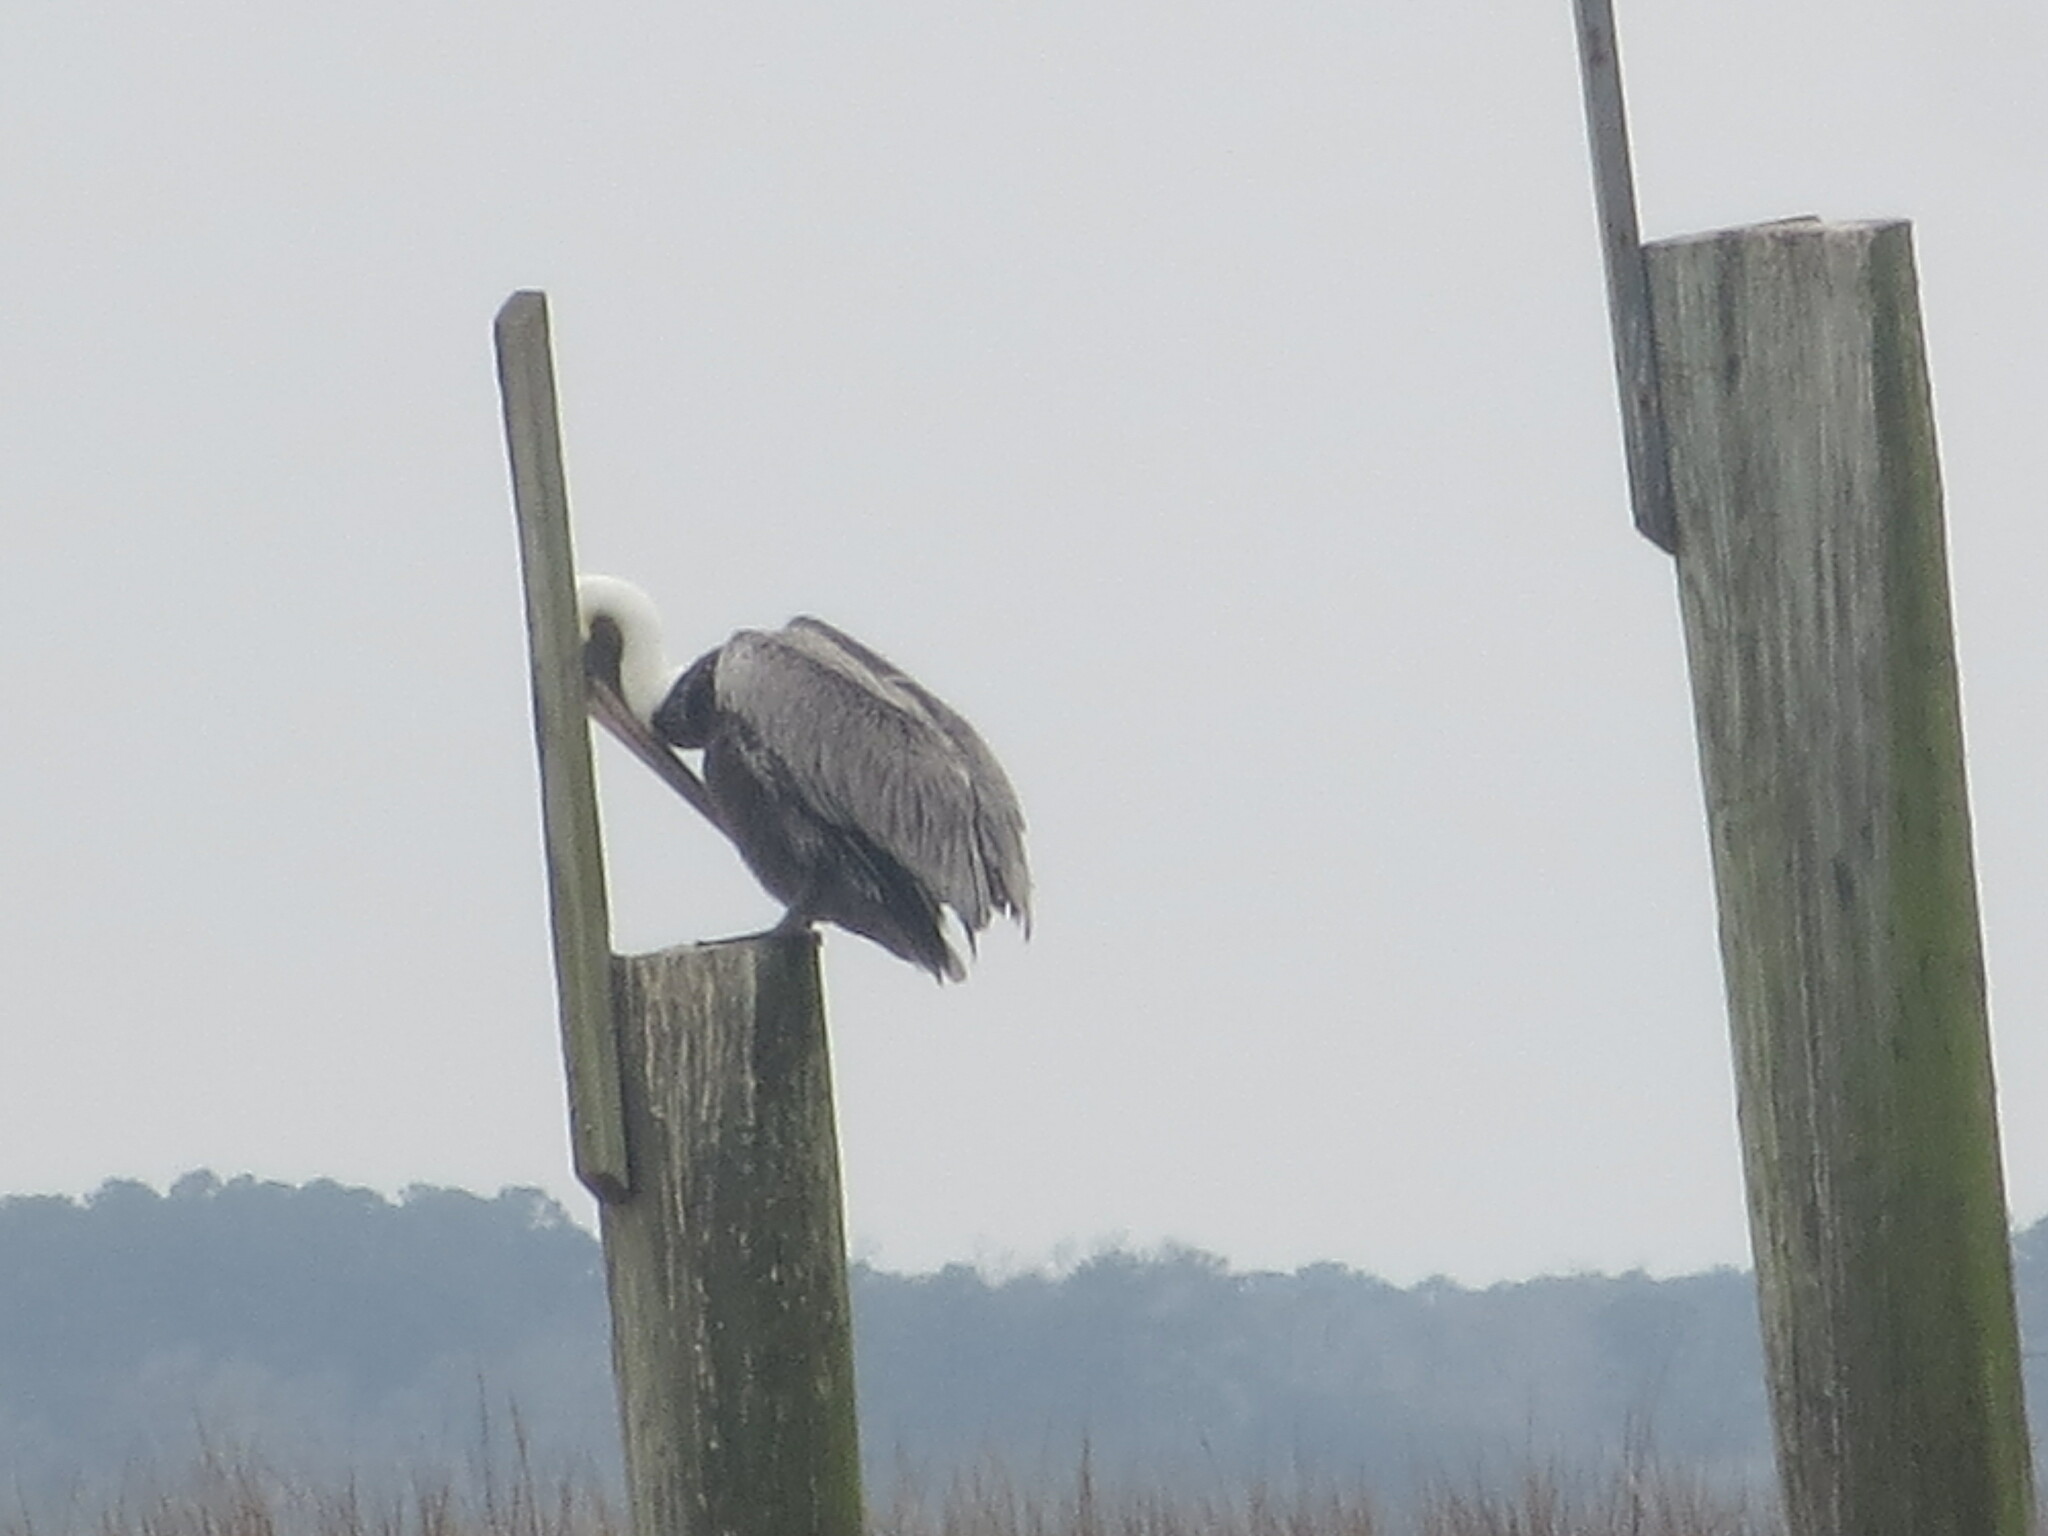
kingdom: Animalia
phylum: Chordata
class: Aves
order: Pelecaniformes
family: Pelecanidae
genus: Pelecanus
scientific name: Pelecanus occidentalis
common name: Brown pelican
